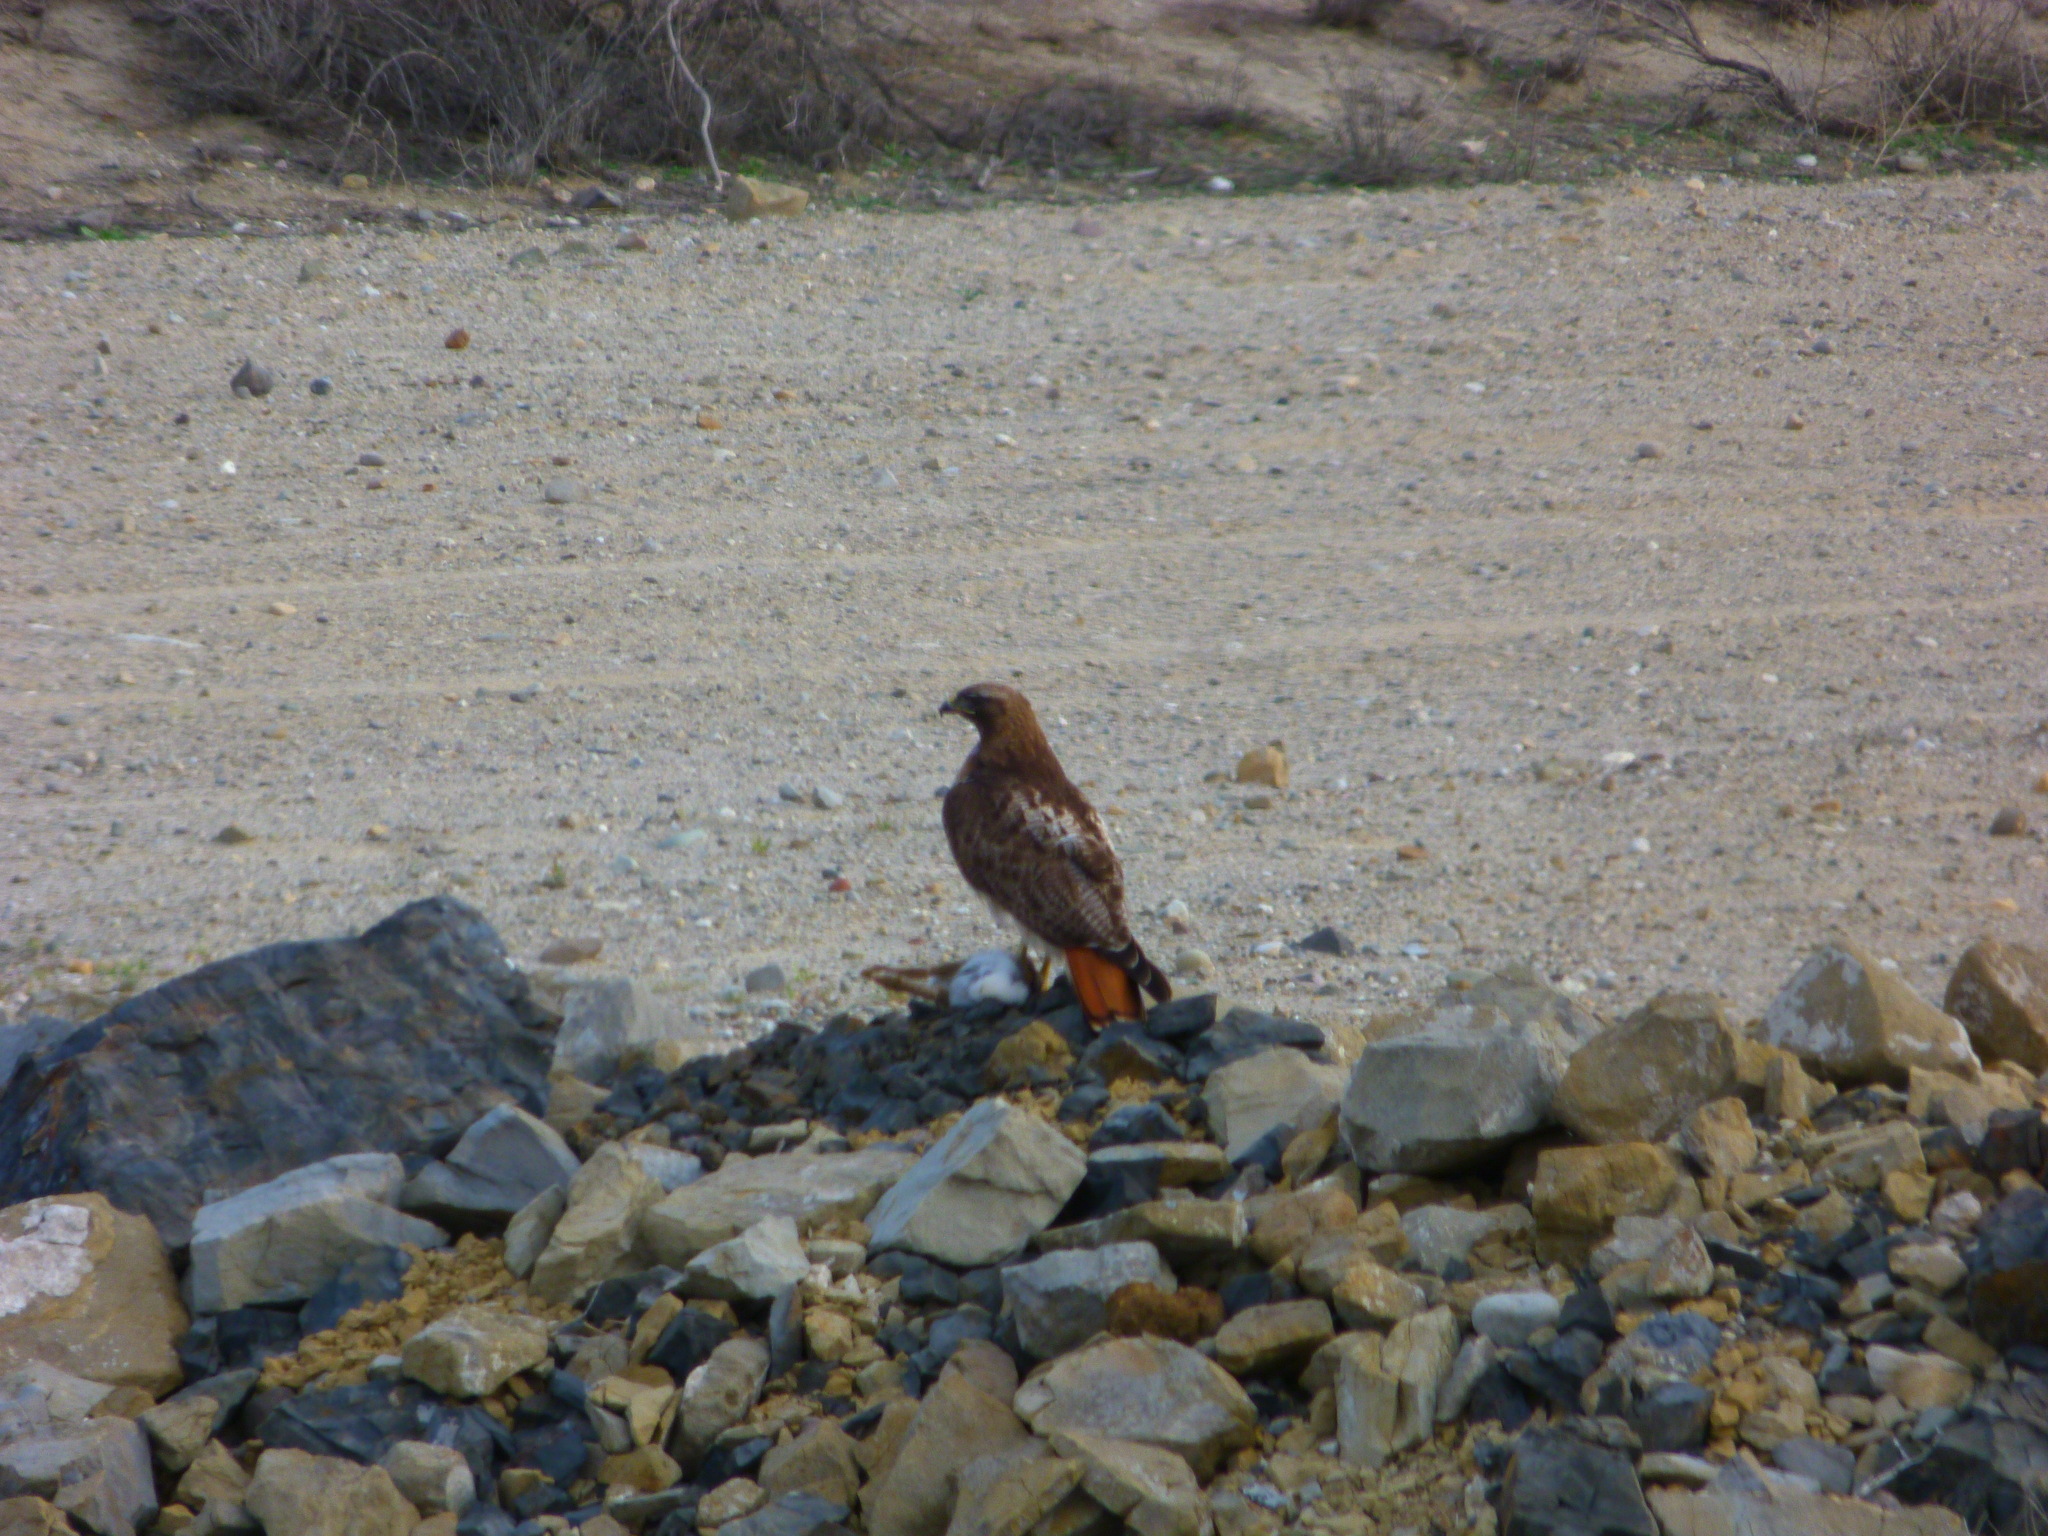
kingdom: Animalia
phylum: Chordata
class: Aves
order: Accipitriformes
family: Accipitridae
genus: Buteo
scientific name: Buteo jamaicensis
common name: Red-tailed hawk
